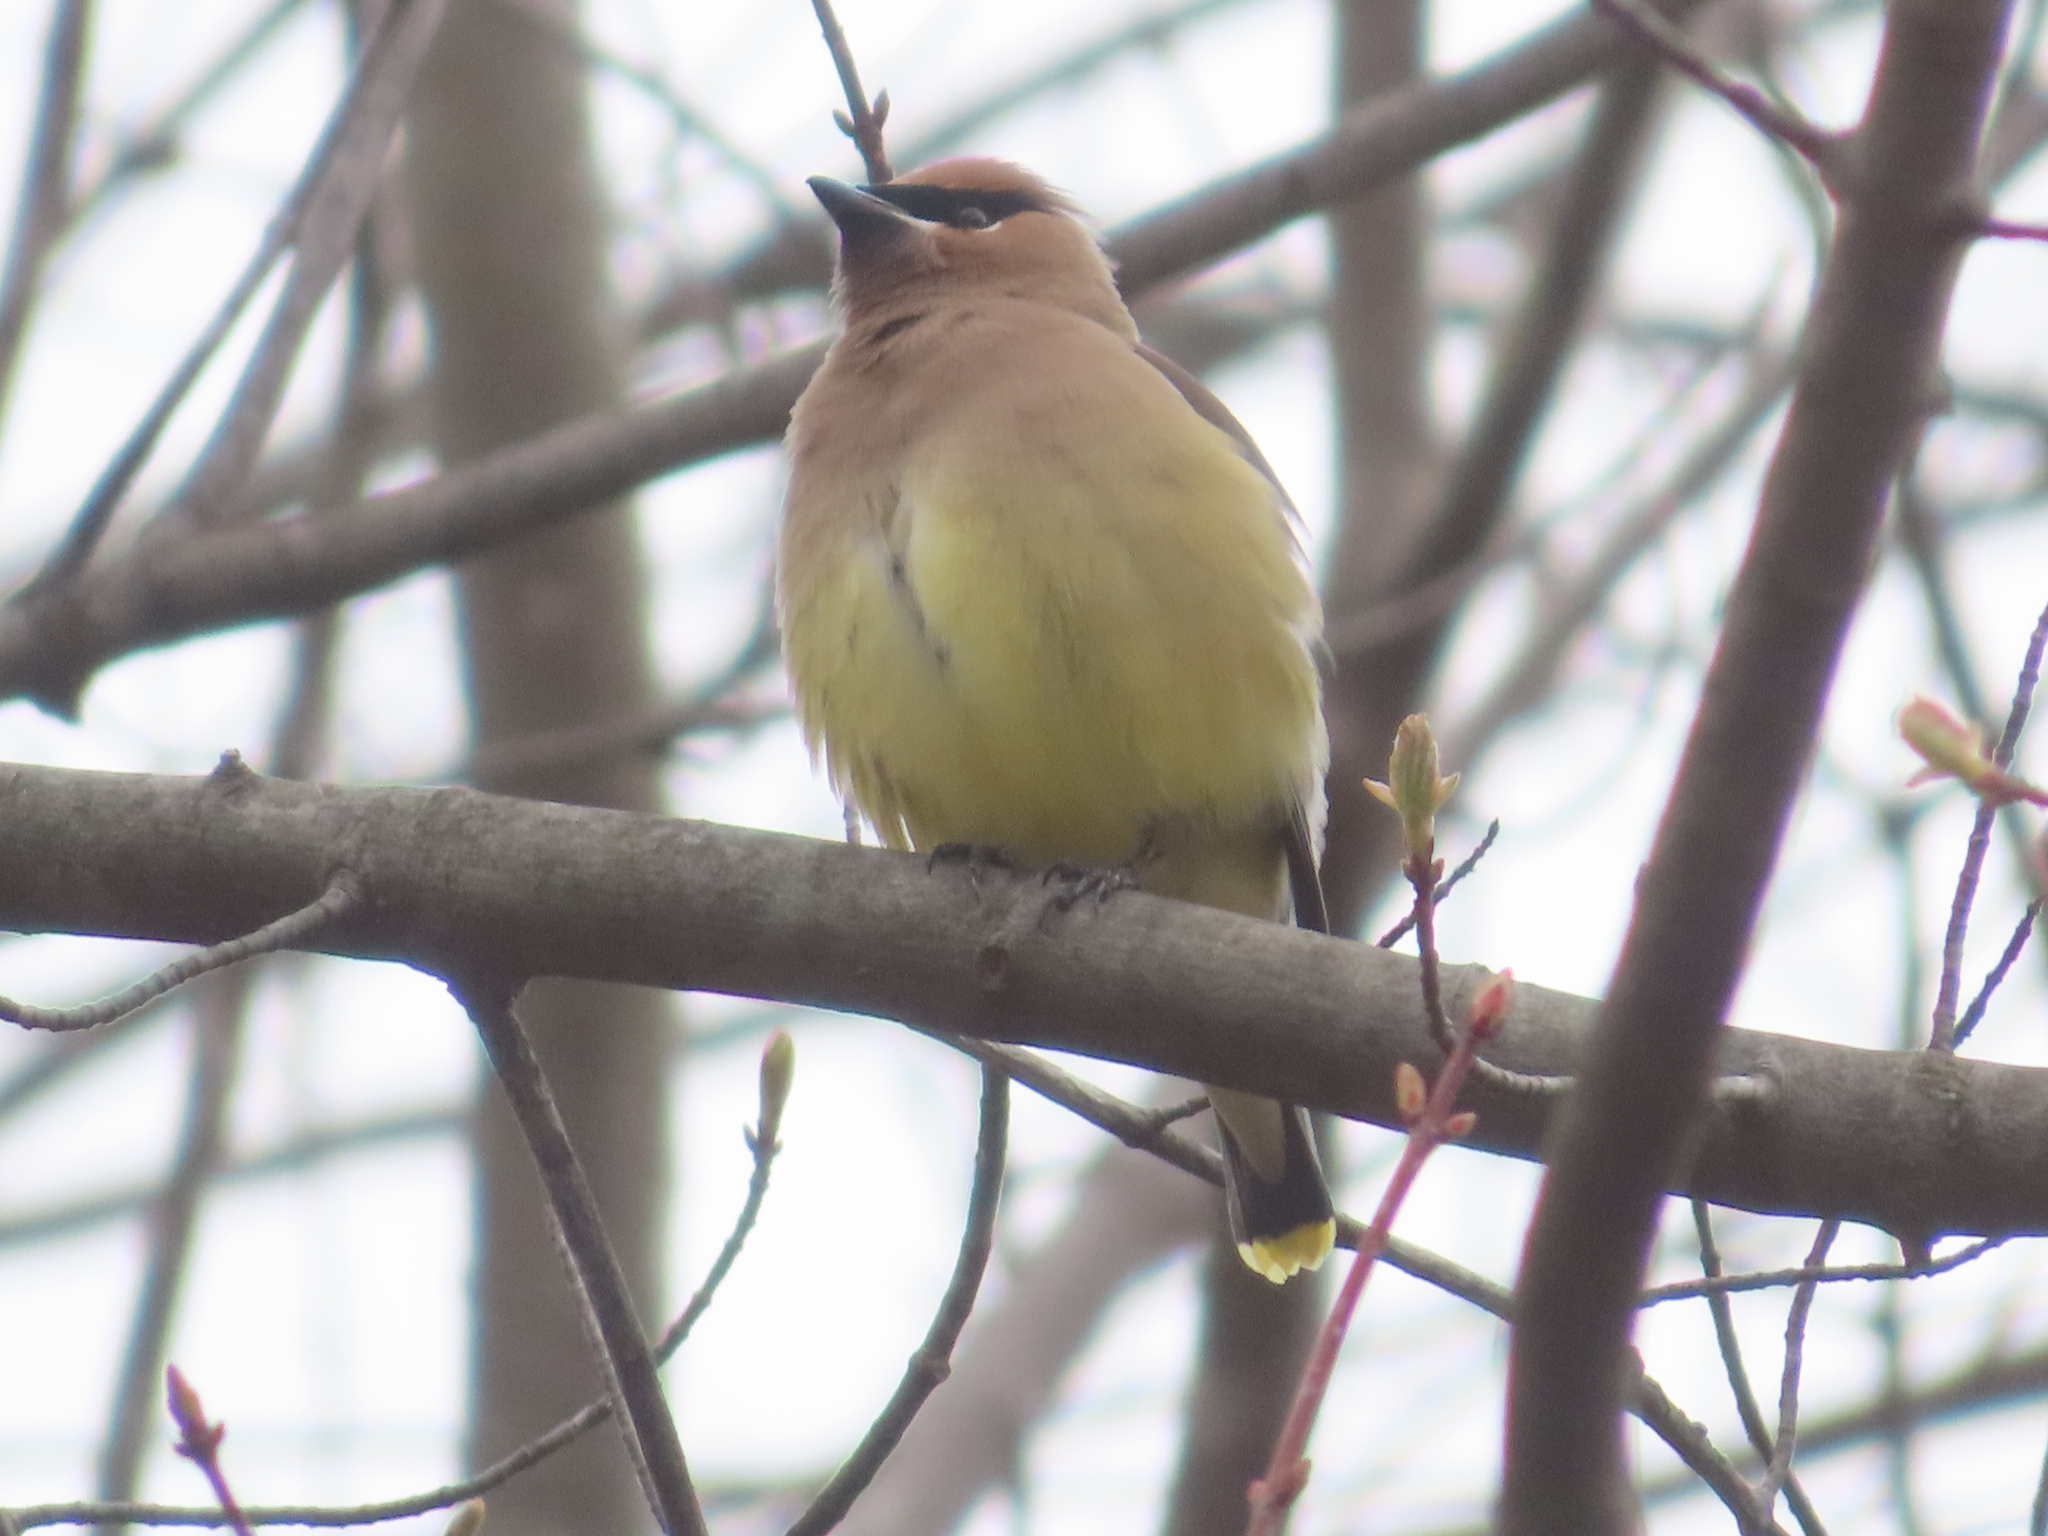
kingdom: Animalia
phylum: Chordata
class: Aves
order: Passeriformes
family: Bombycillidae
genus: Bombycilla
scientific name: Bombycilla cedrorum
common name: Cedar waxwing
